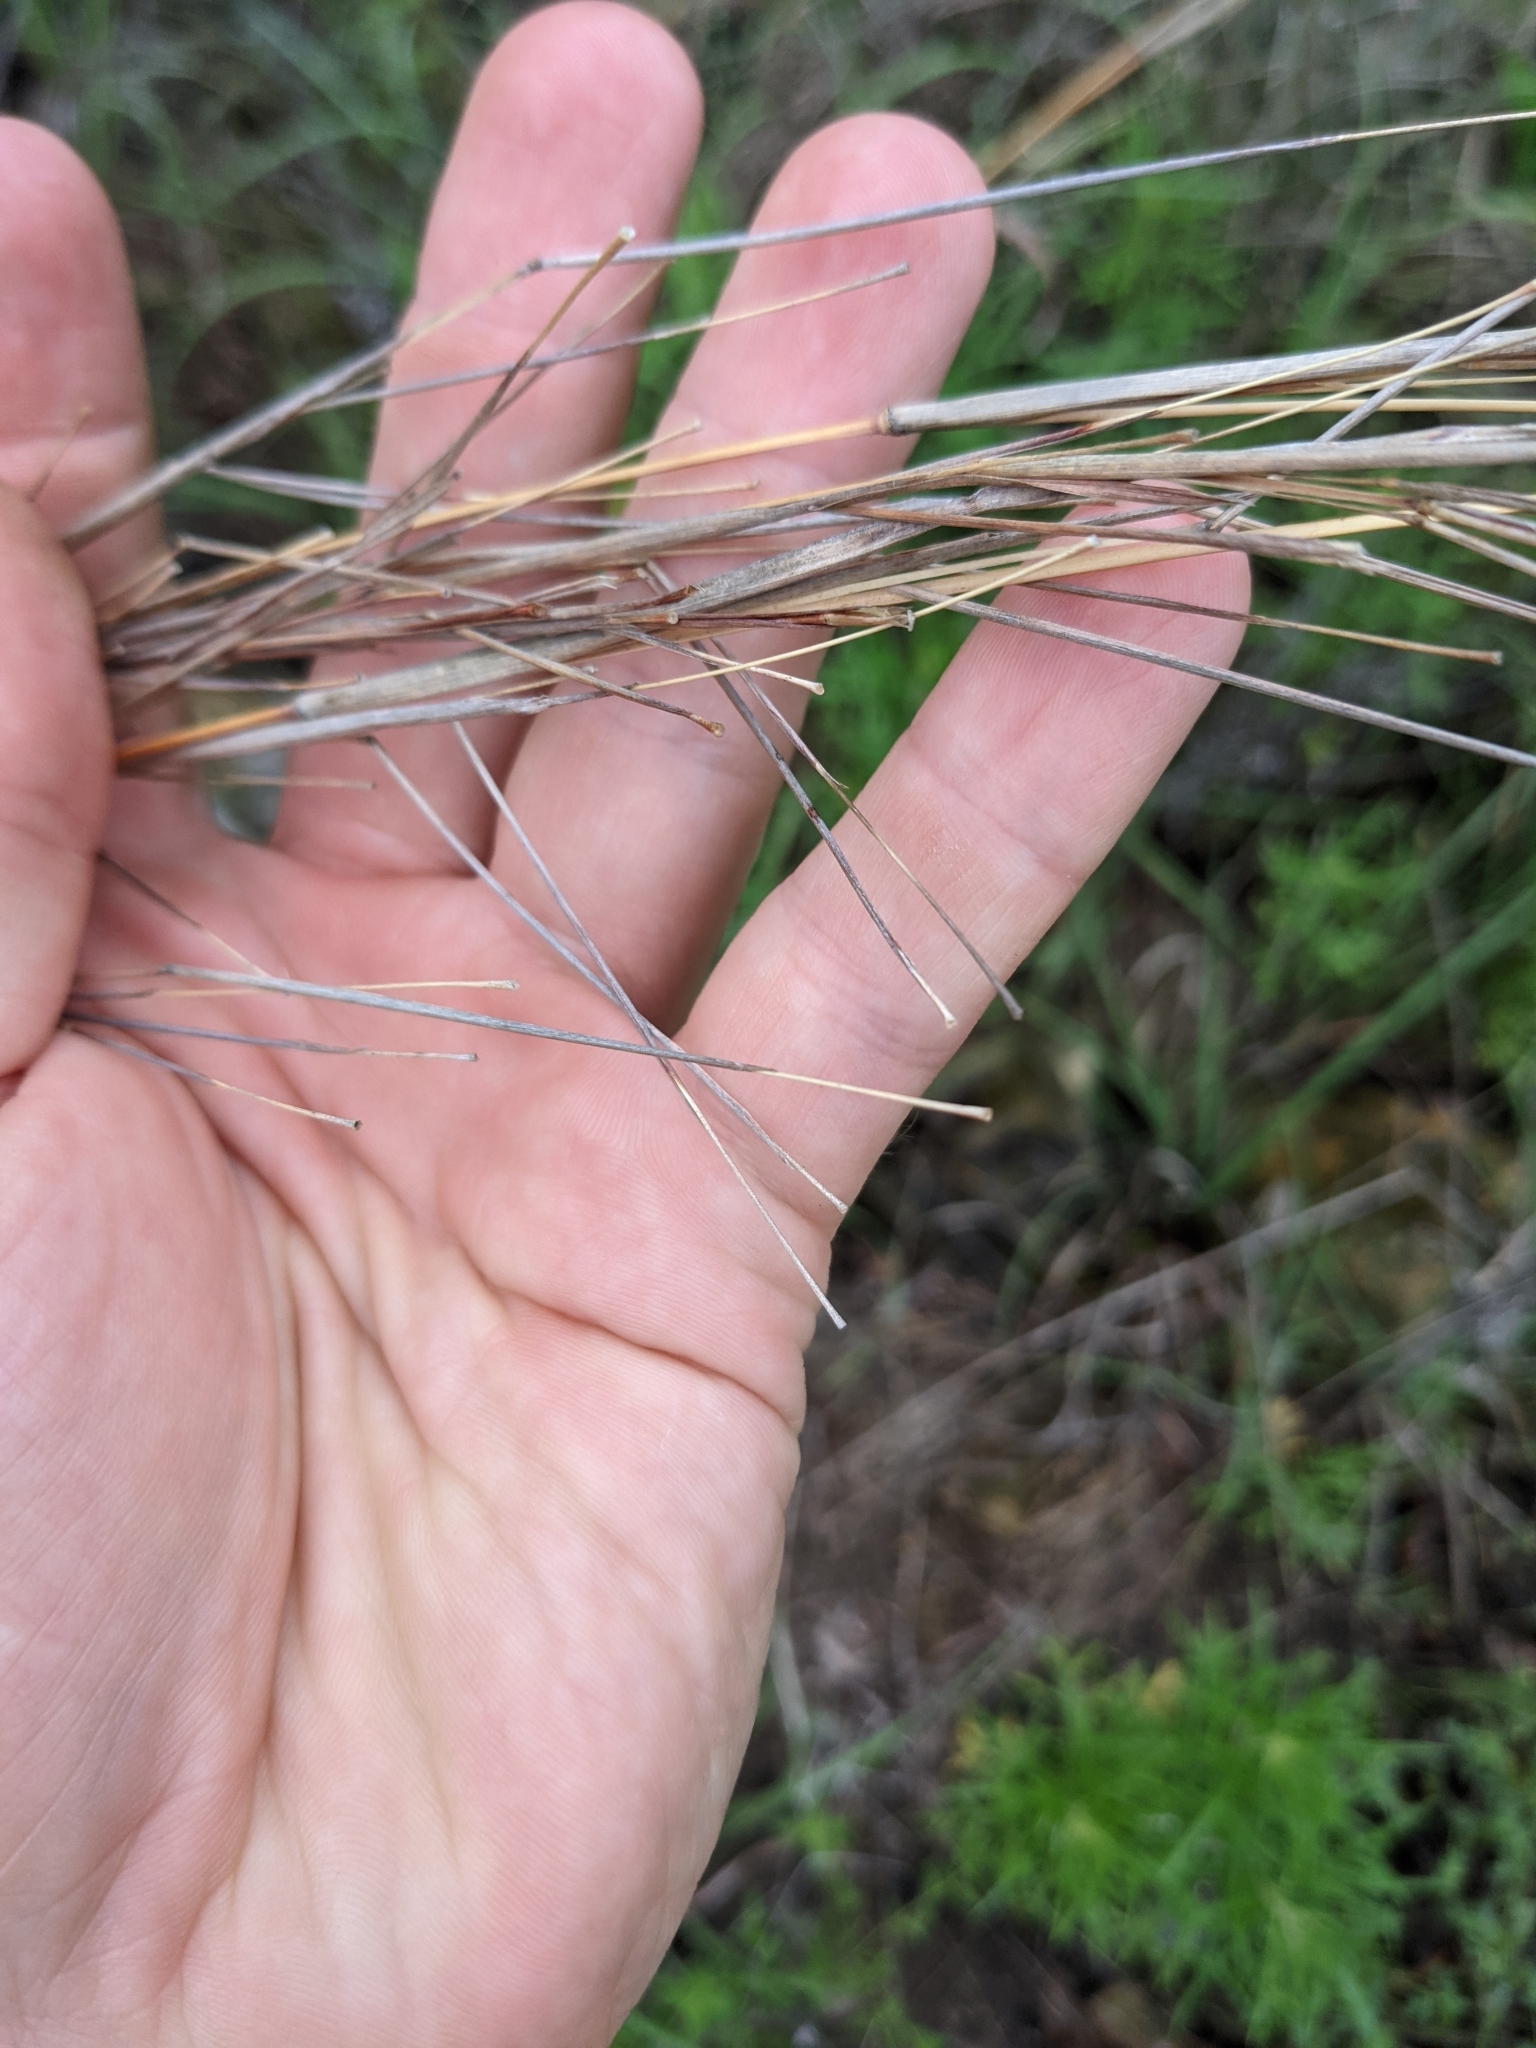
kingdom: Plantae
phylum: Tracheophyta
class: Liliopsida
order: Poales
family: Poaceae
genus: Schizachyrium
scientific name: Schizachyrium scoparium
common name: Little bluestem
